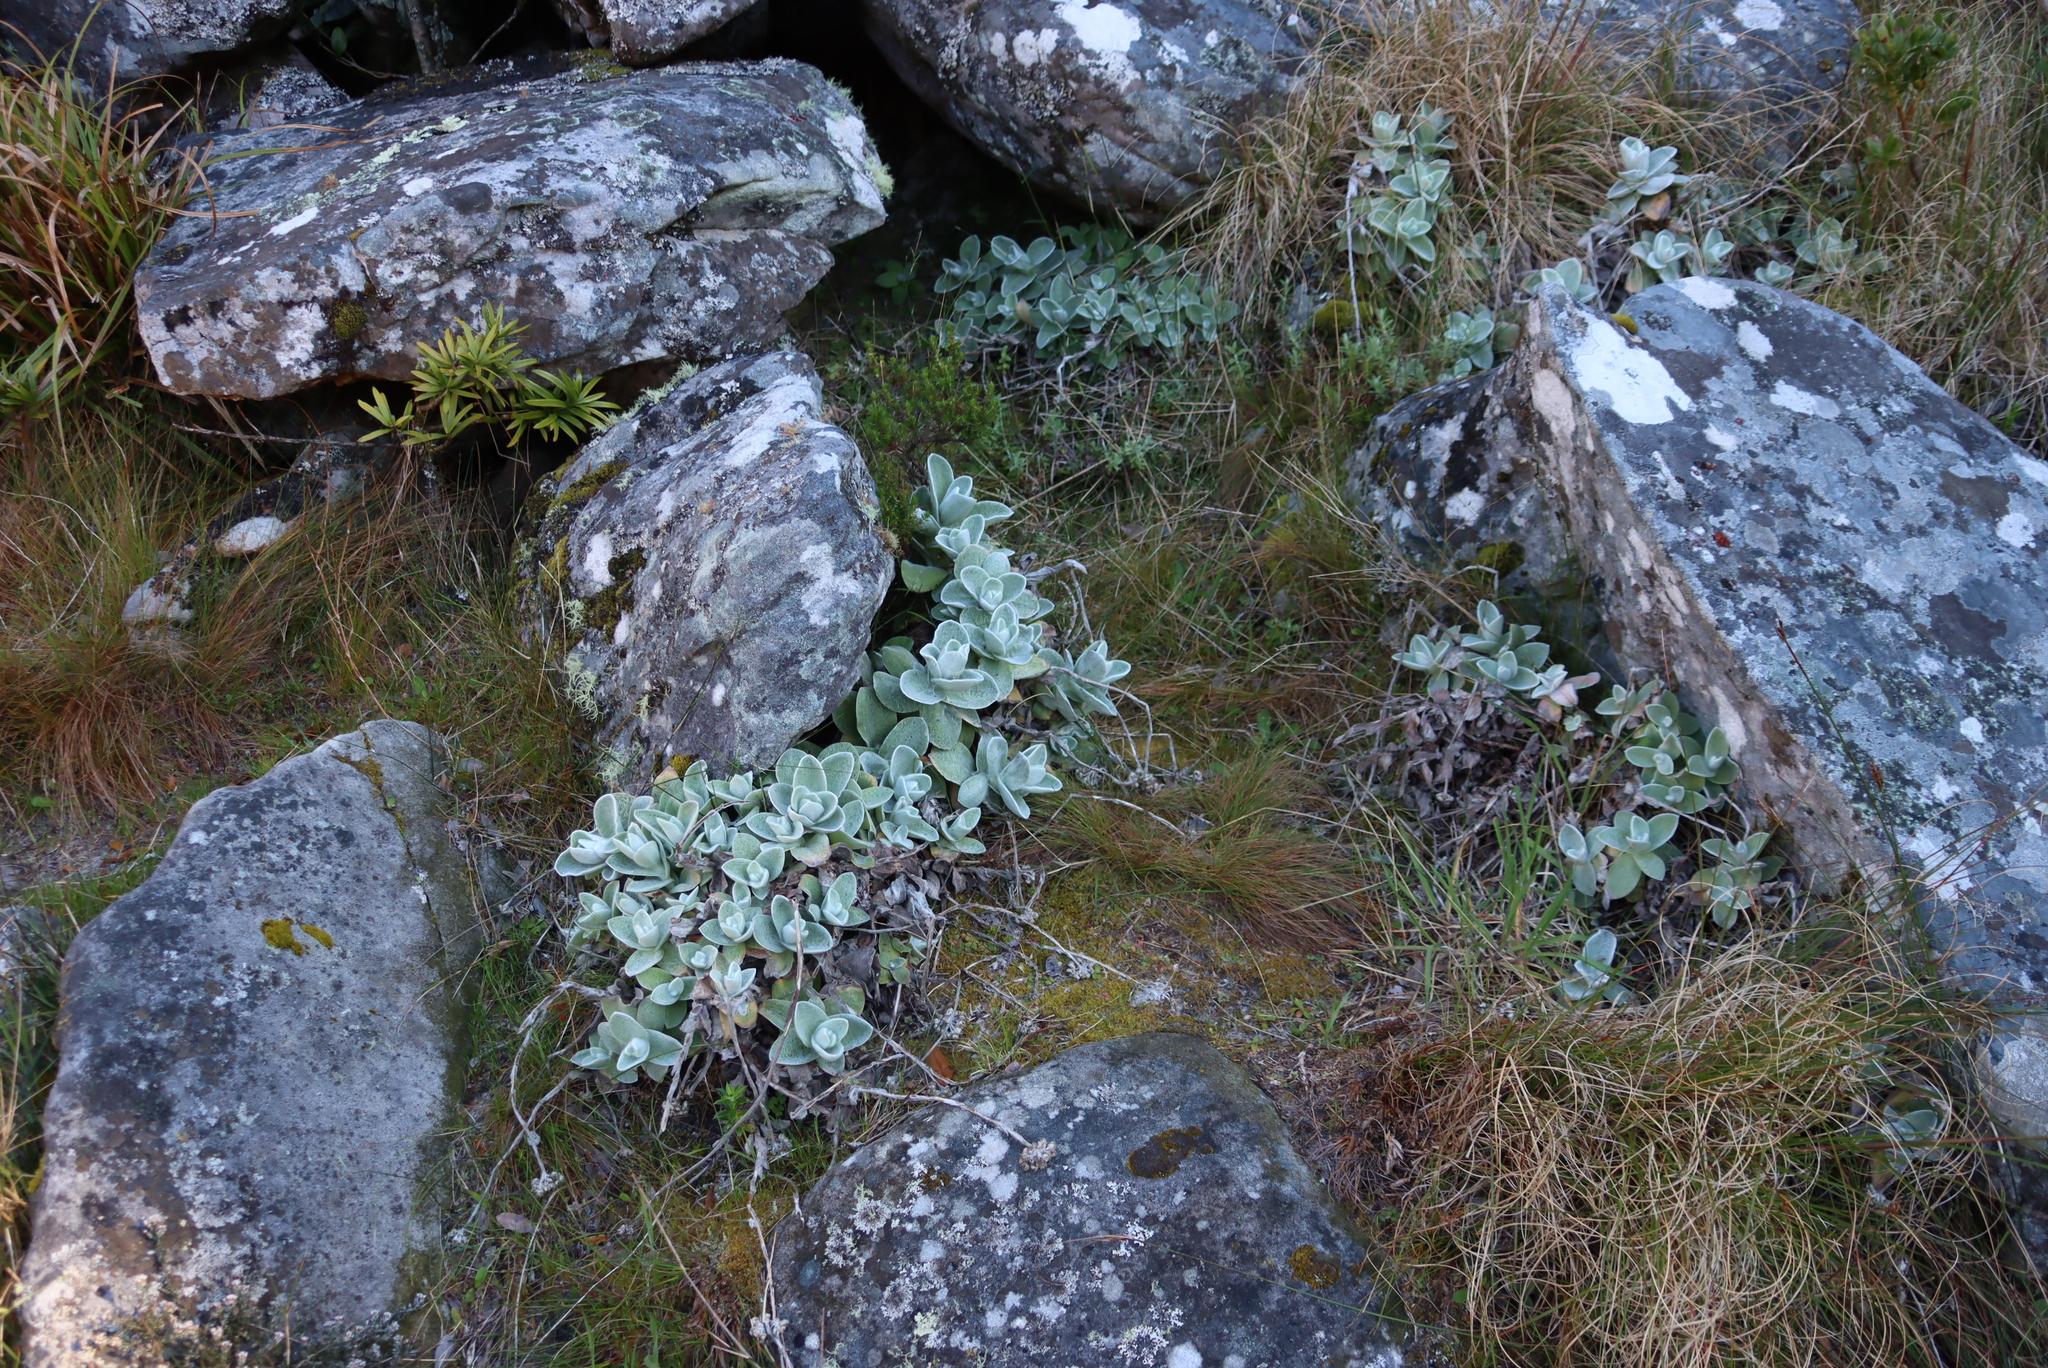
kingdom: Plantae
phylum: Tracheophyta
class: Magnoliopsida
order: Asterales
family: Asteraceae
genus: Helichrysum
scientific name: Helichrysum grandiflorum
